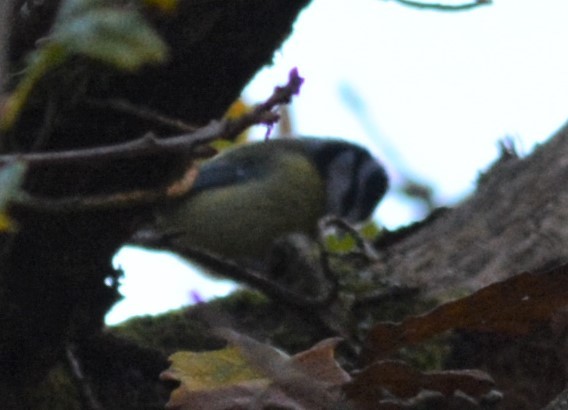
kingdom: Animalia
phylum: Chordata
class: Aves
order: Passeriformes
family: Paridae
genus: Cyanistes
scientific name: Cyanistes caeruleus
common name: Eurasian blue tit
